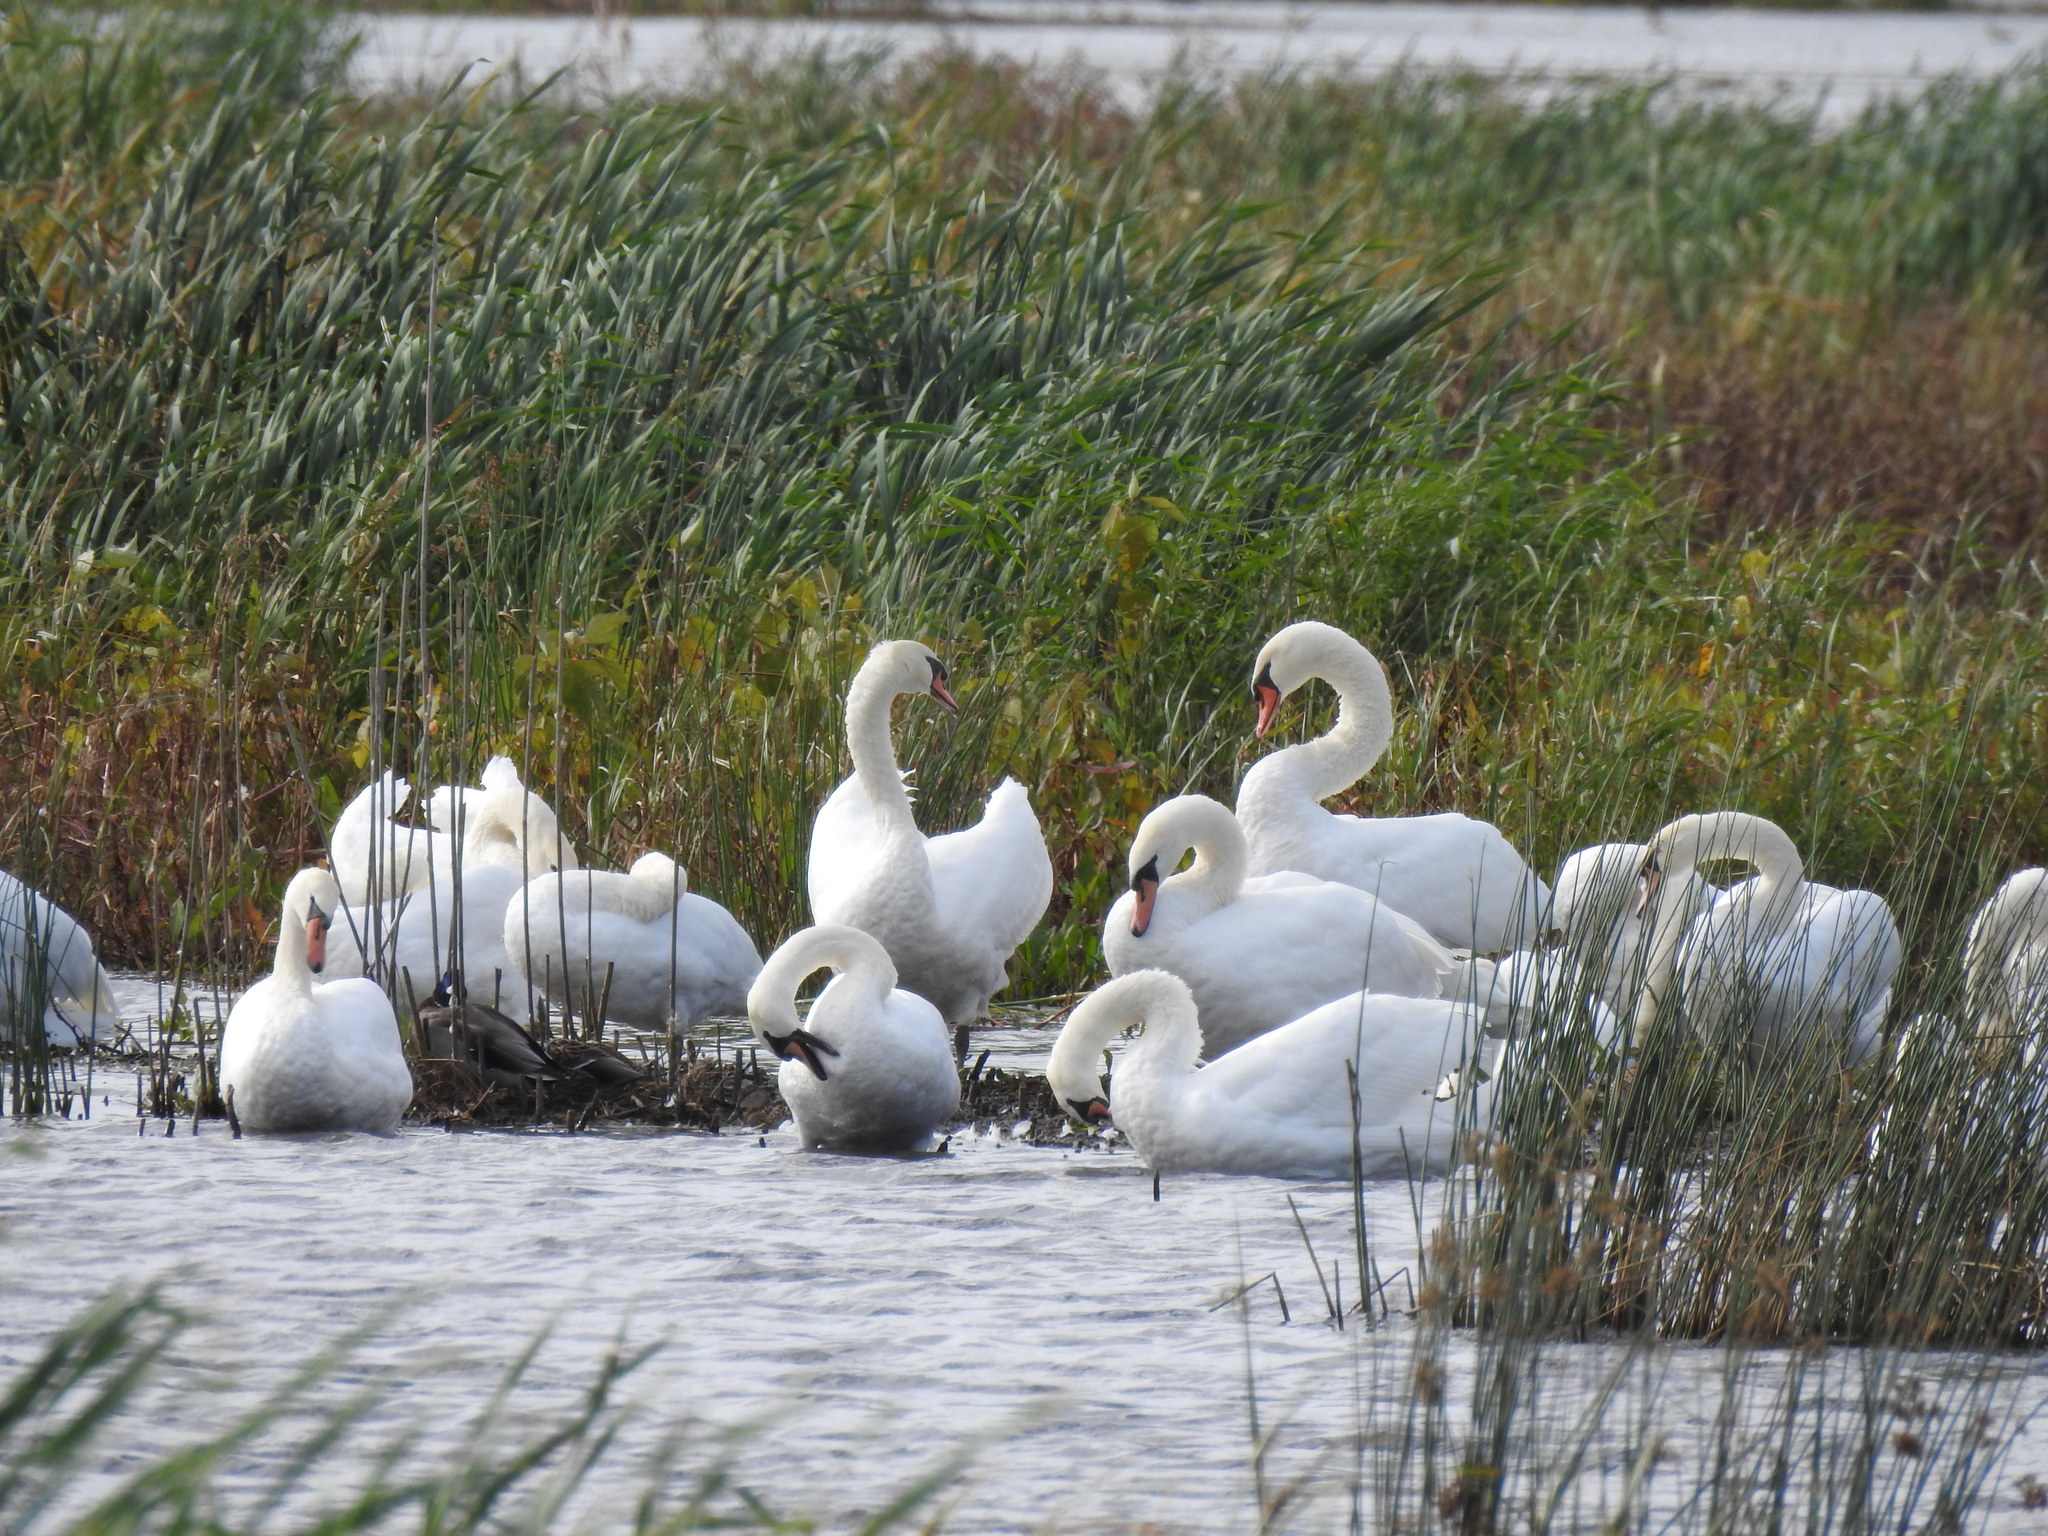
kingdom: Animalia
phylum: Chordata
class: Aves
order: Anseriformes
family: Anatidae
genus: Cygnus
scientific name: Cygnus olor
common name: Mute swan
